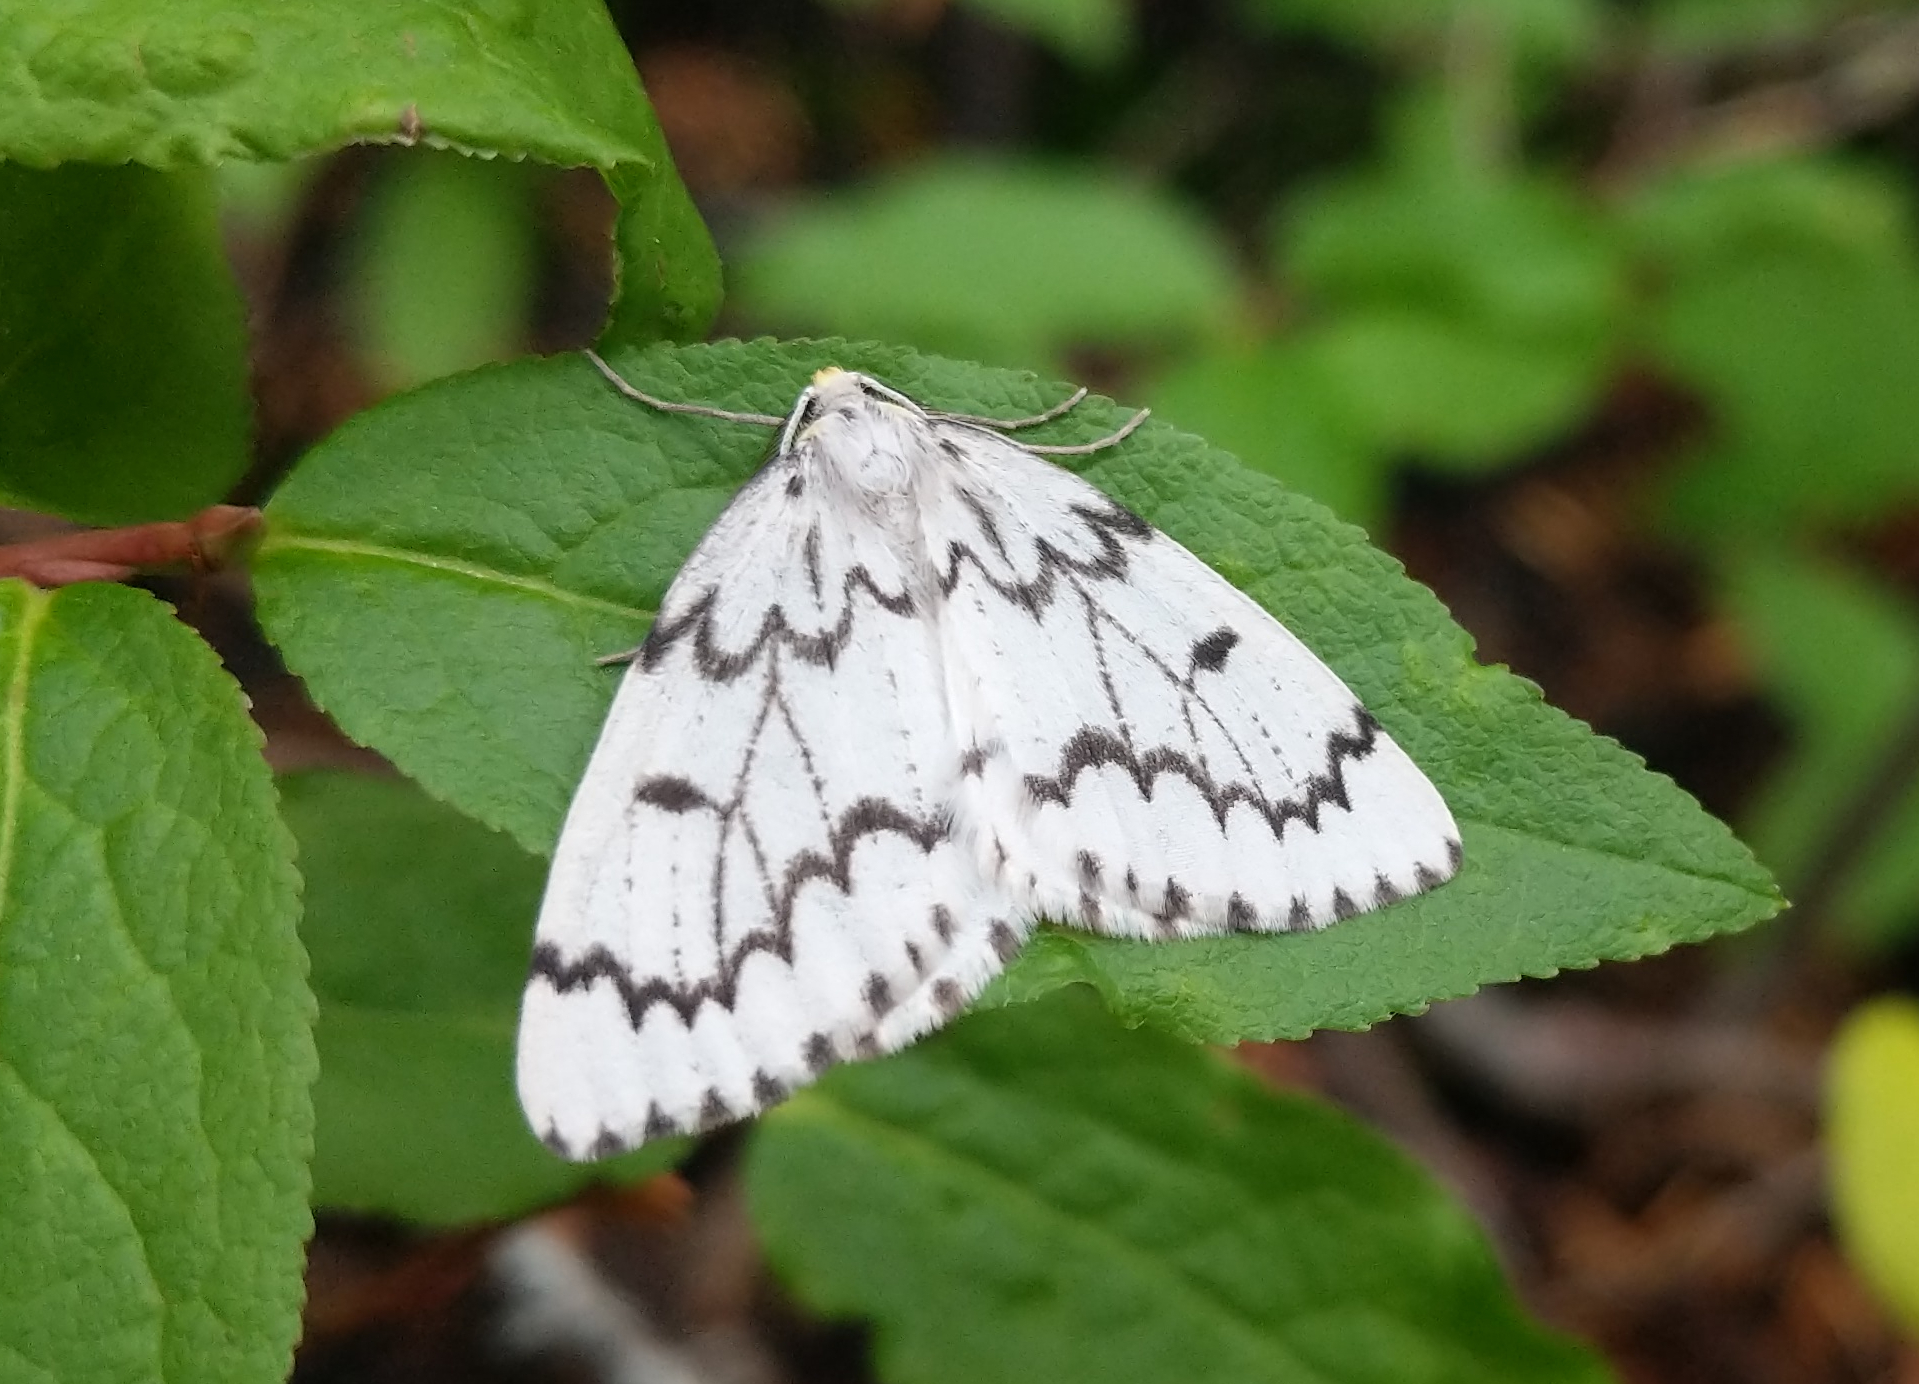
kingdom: Animalia
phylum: Arthropoda
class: Insecta
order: Lepidoptera
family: Geometridae
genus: Nepytia
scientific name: Nepytia phantasmaria
